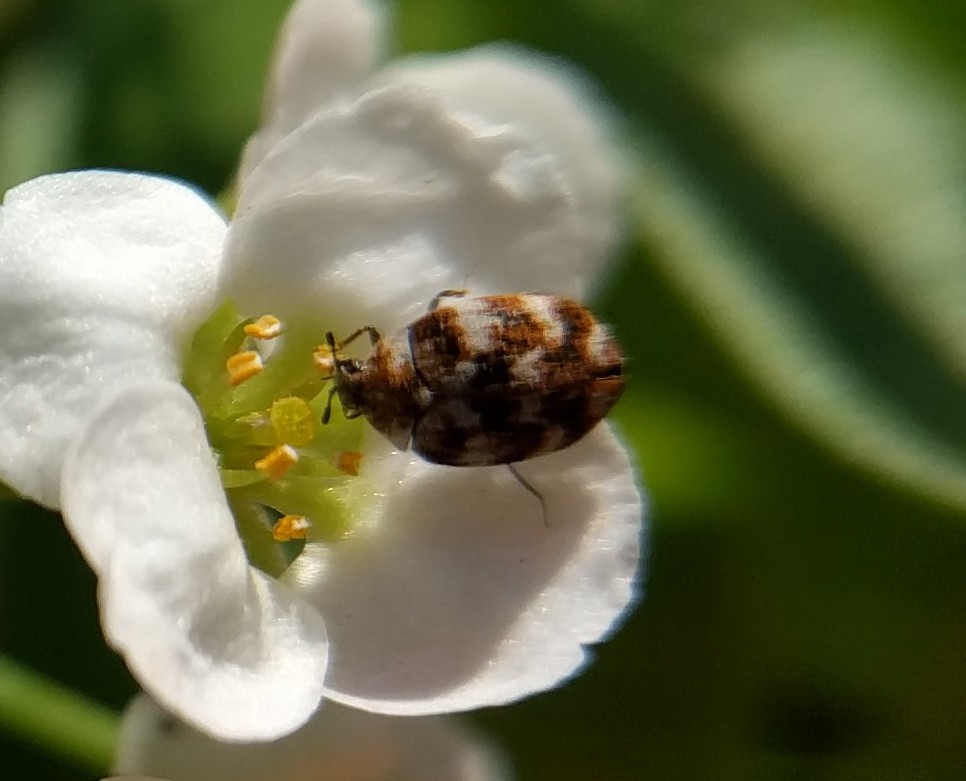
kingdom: Animalia
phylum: Arthropoda
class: Insecta
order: Coleoptera
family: Dermestidae
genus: Anthrenus
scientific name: Anthrenus verbasci
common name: Varied carpet beetle
